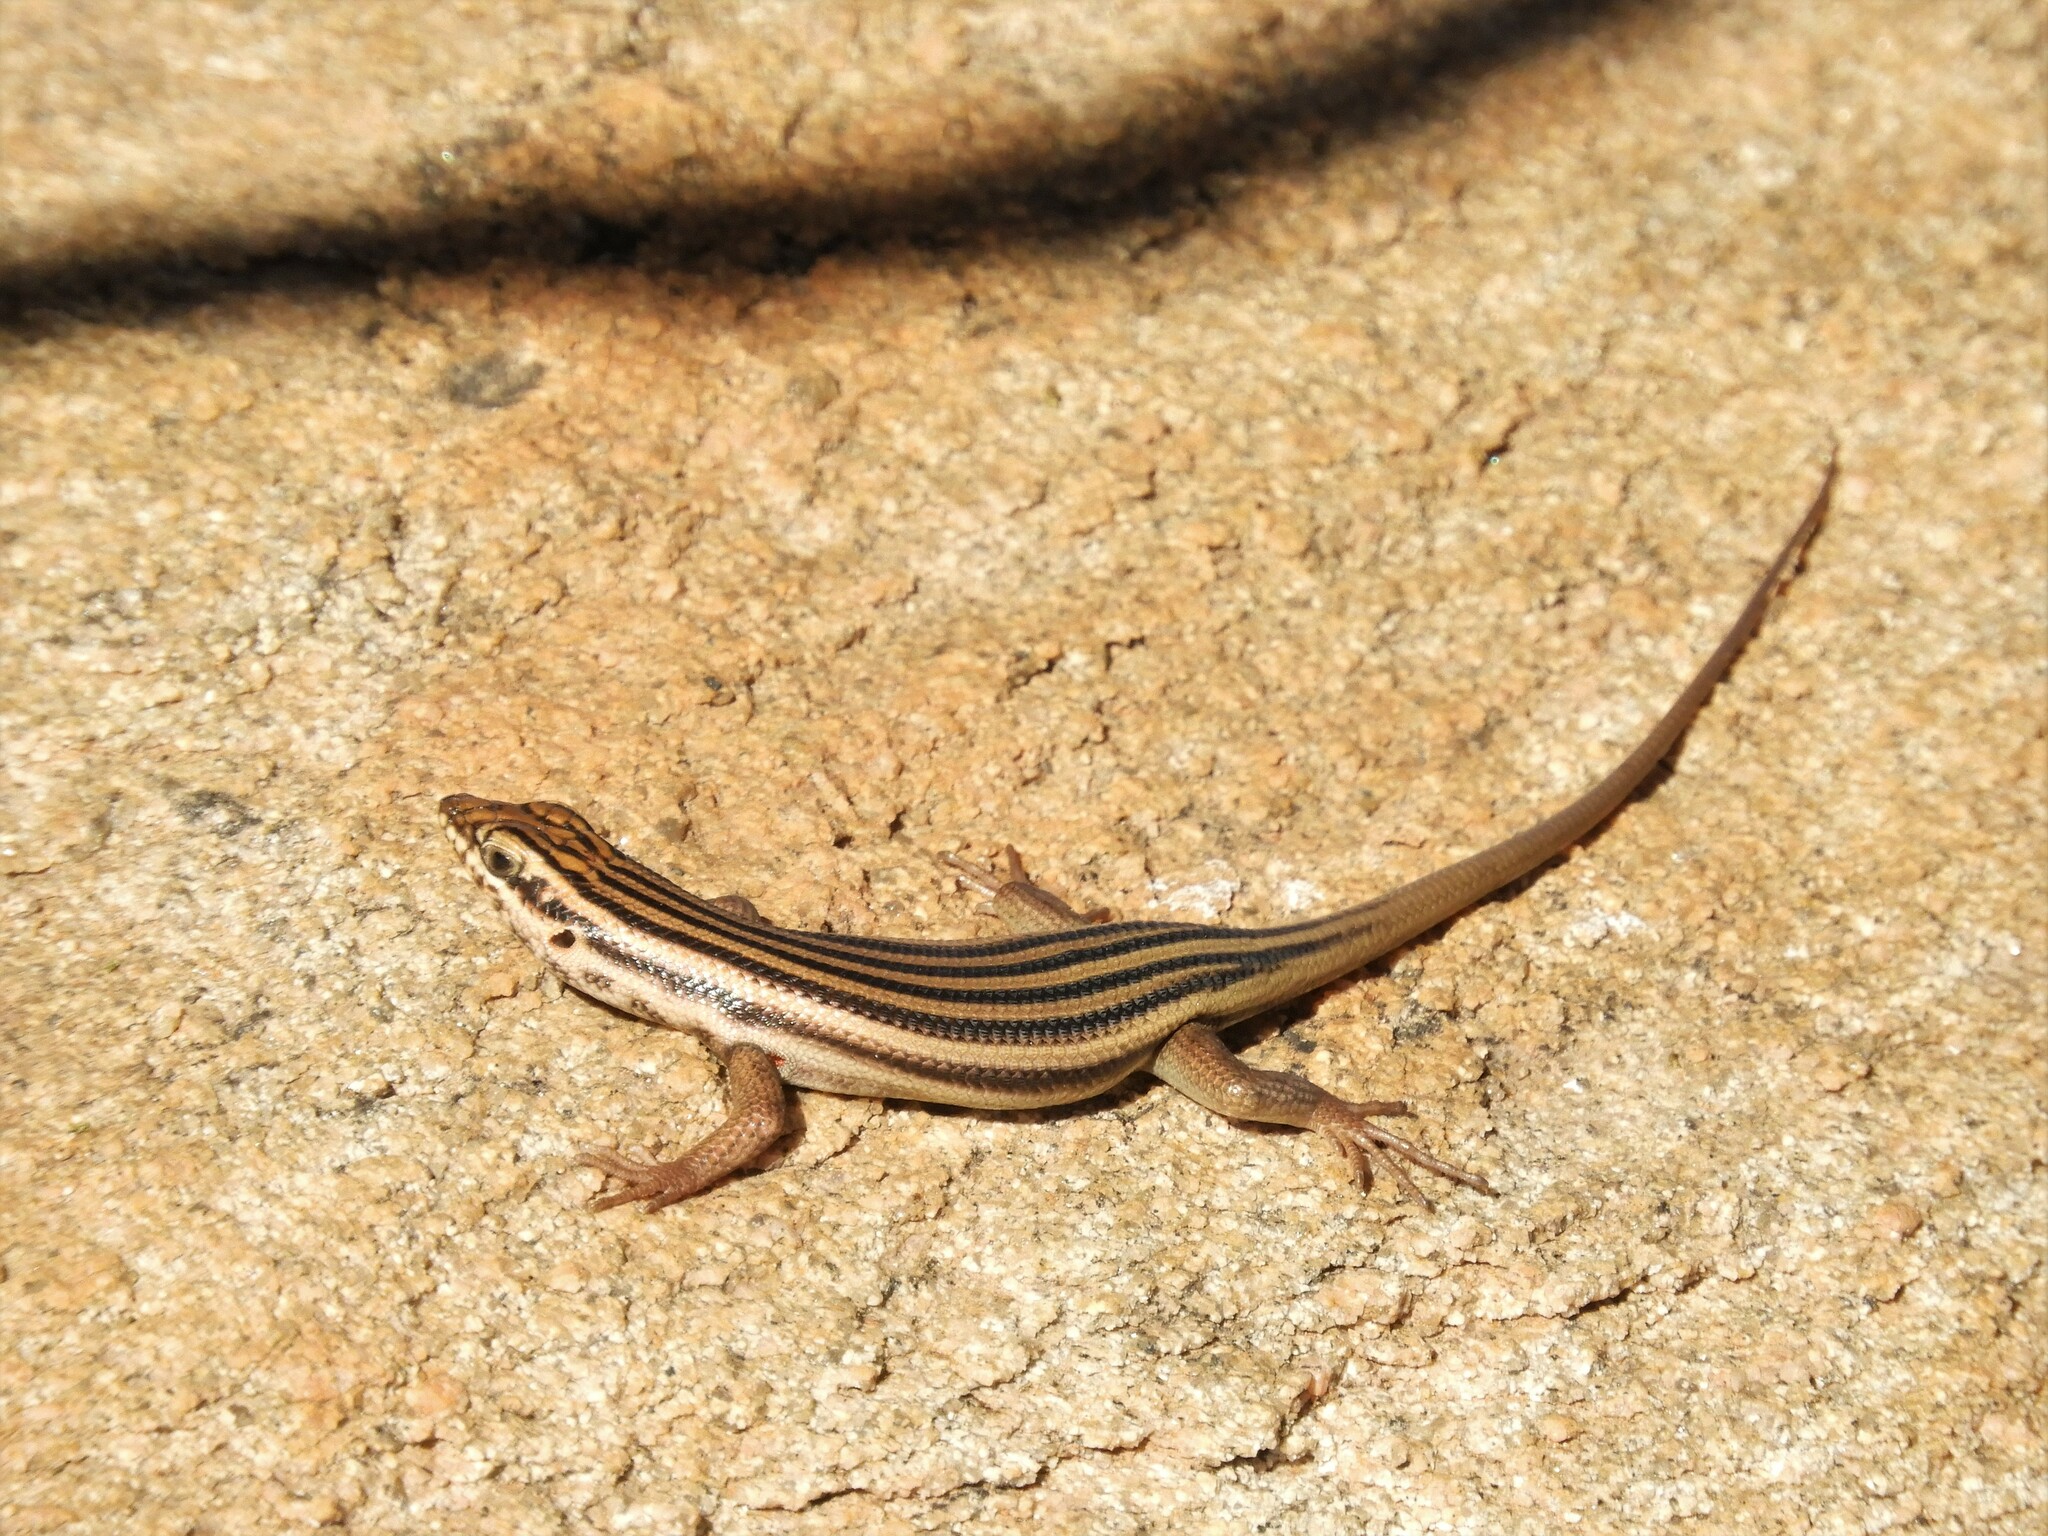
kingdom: Animalia
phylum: Chordata
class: Squamata
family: Scincidae
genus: Trachylepis
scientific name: Trachylepis sulcata
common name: Western rock skink
